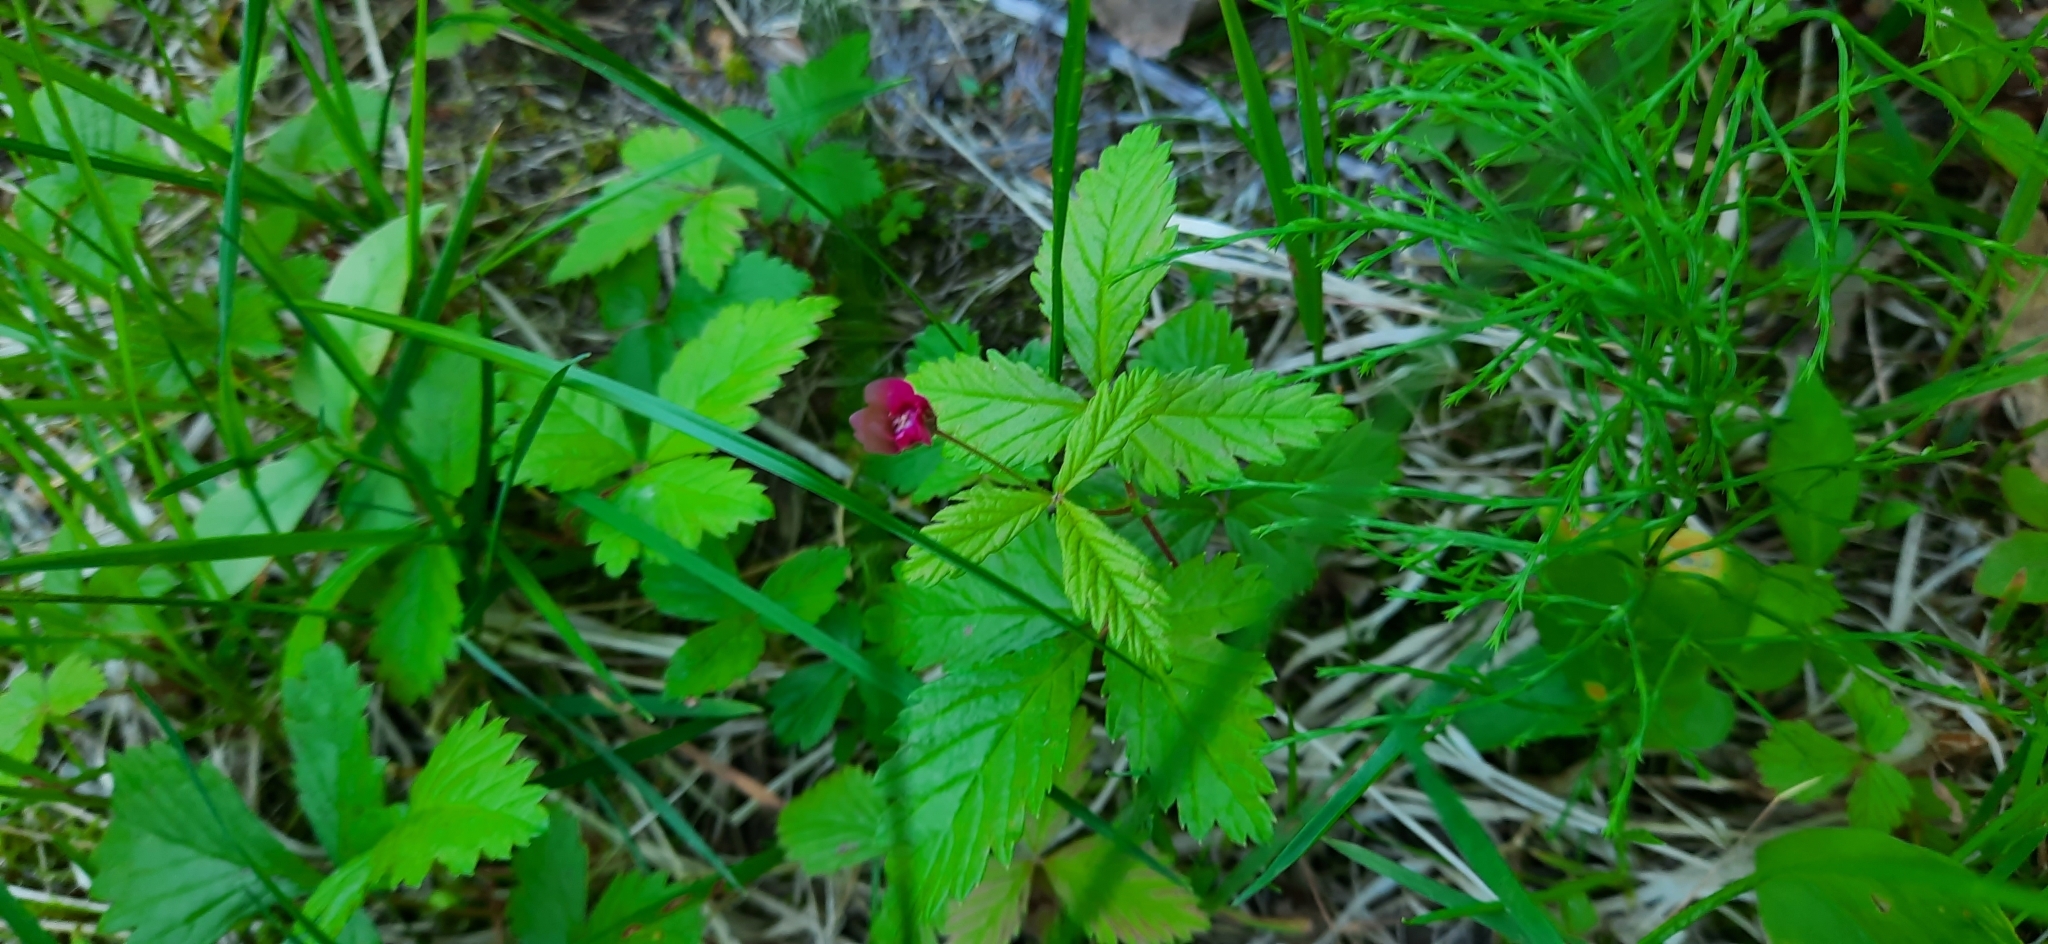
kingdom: Plantae
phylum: Tracheophyta
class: Magnoliopsida
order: Rosales
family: Rosaceae
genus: Rubus
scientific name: Rubus arcticus
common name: Arctic bramble
